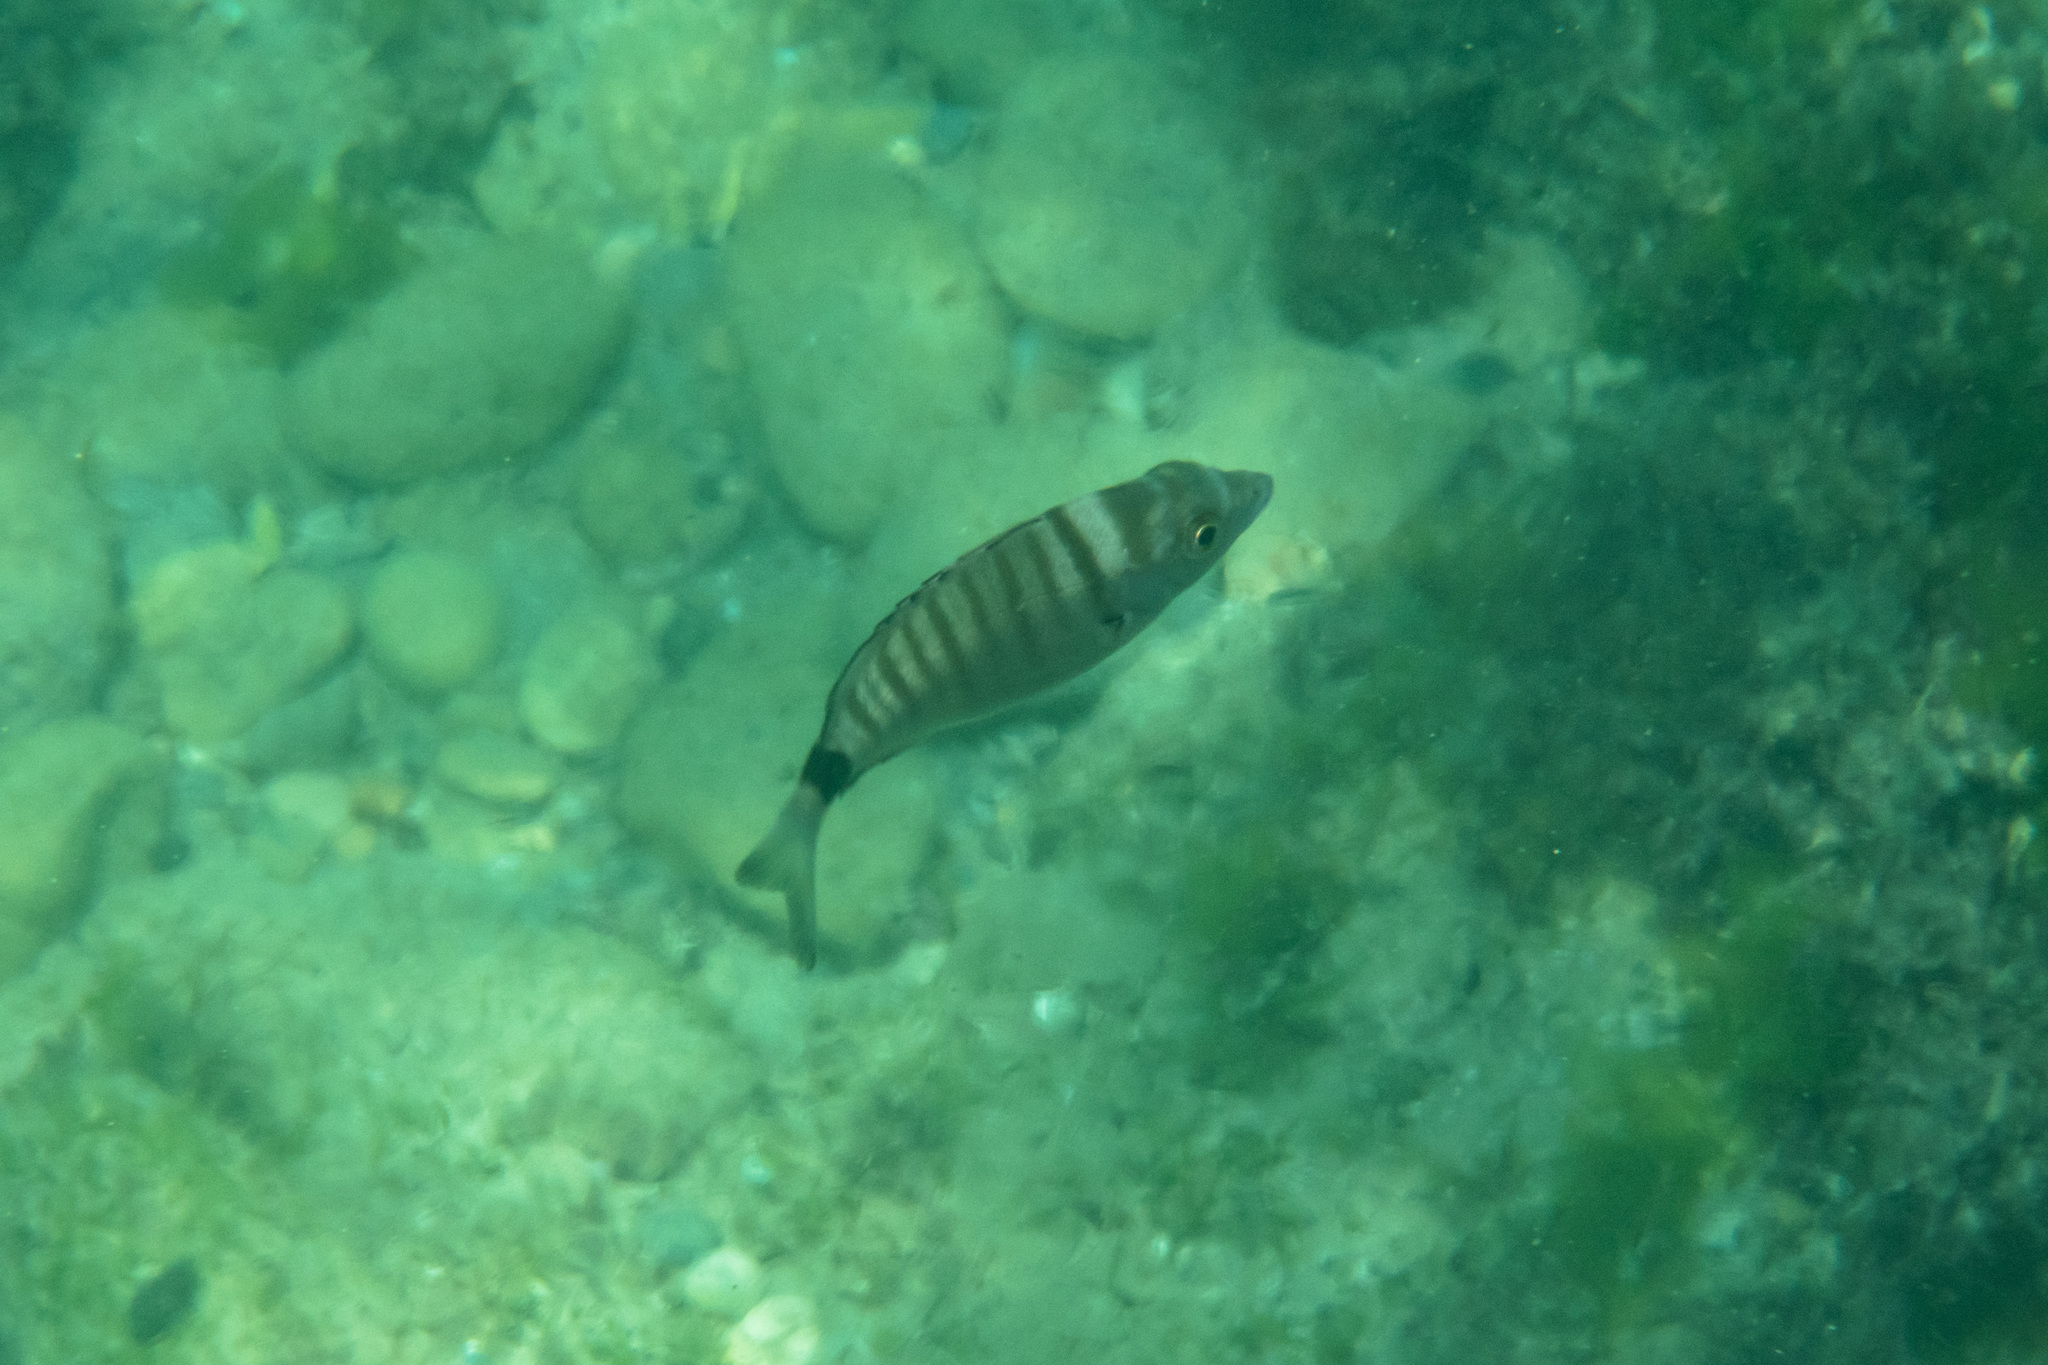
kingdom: Animalia
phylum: Chordata
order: Perciformes
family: Sparidae
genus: Diplodus
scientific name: Diplodus puntazzo
